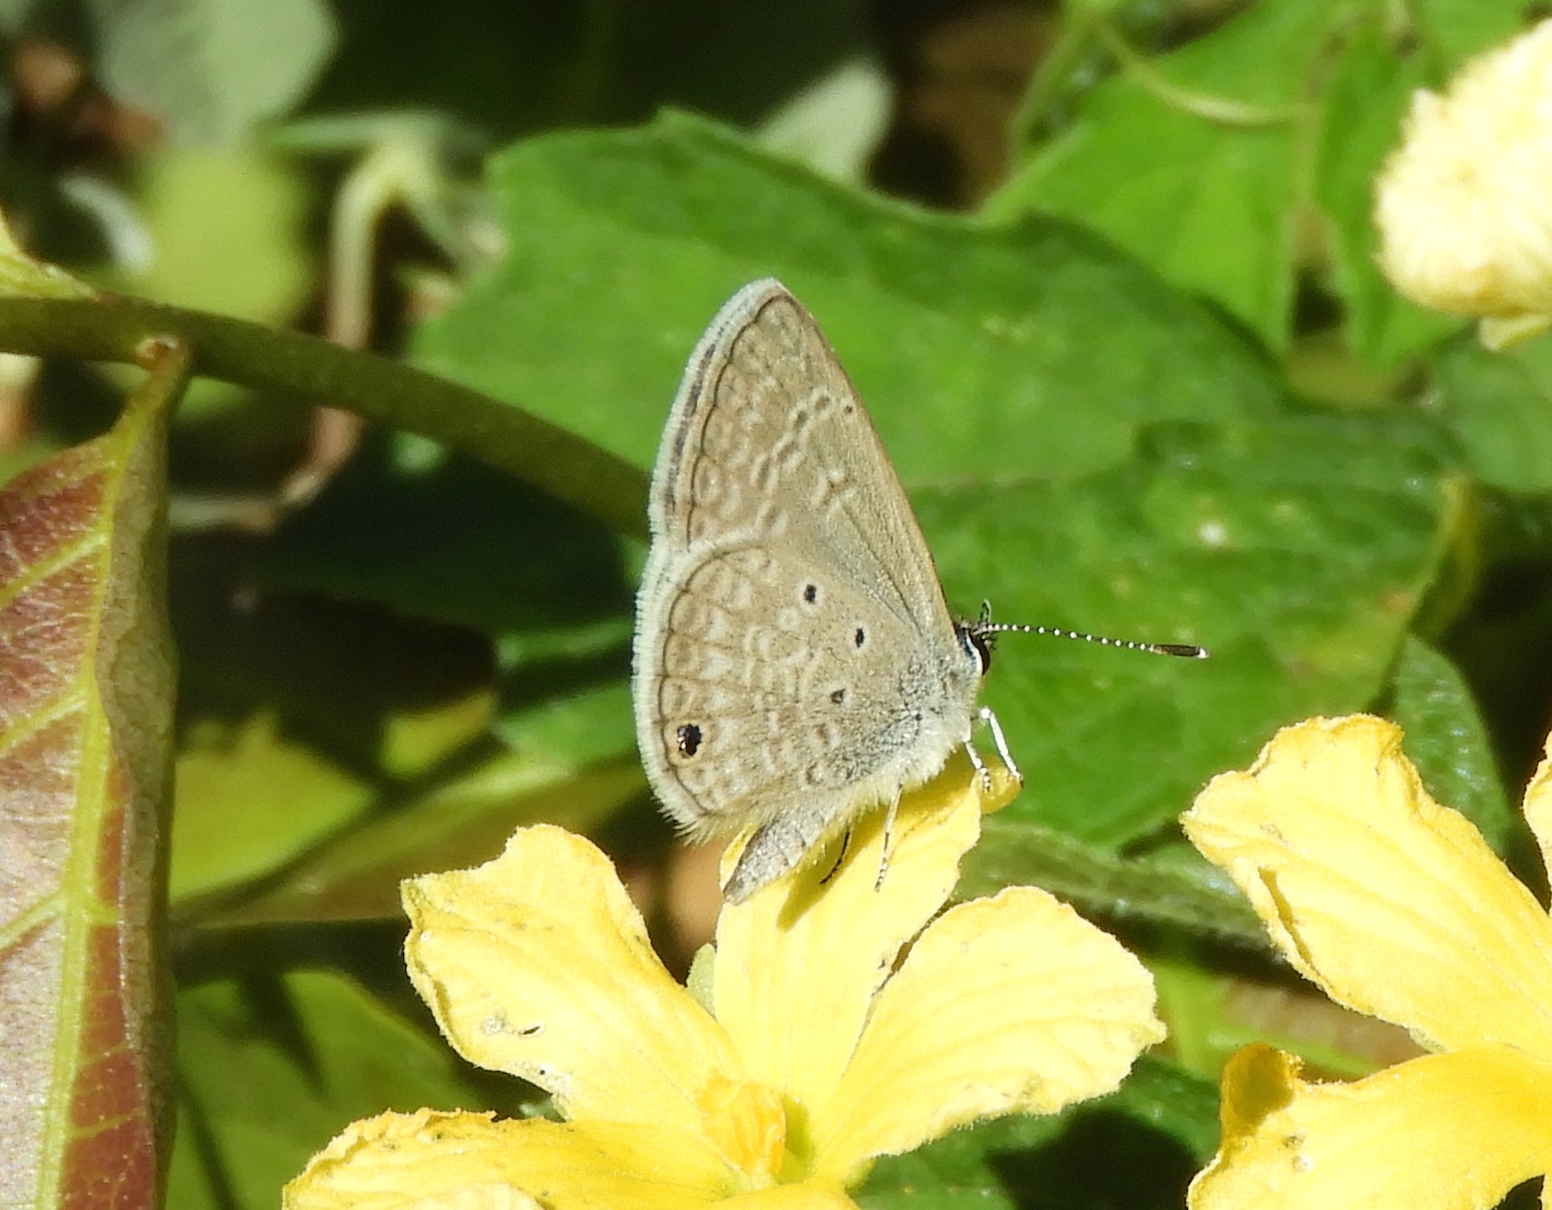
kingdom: Animalia
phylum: Arthropoda
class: Insecta
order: Lepidoptera
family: Lycaenidae
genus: Echinargus
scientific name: Echinargus isola
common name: Reakirt's blue
